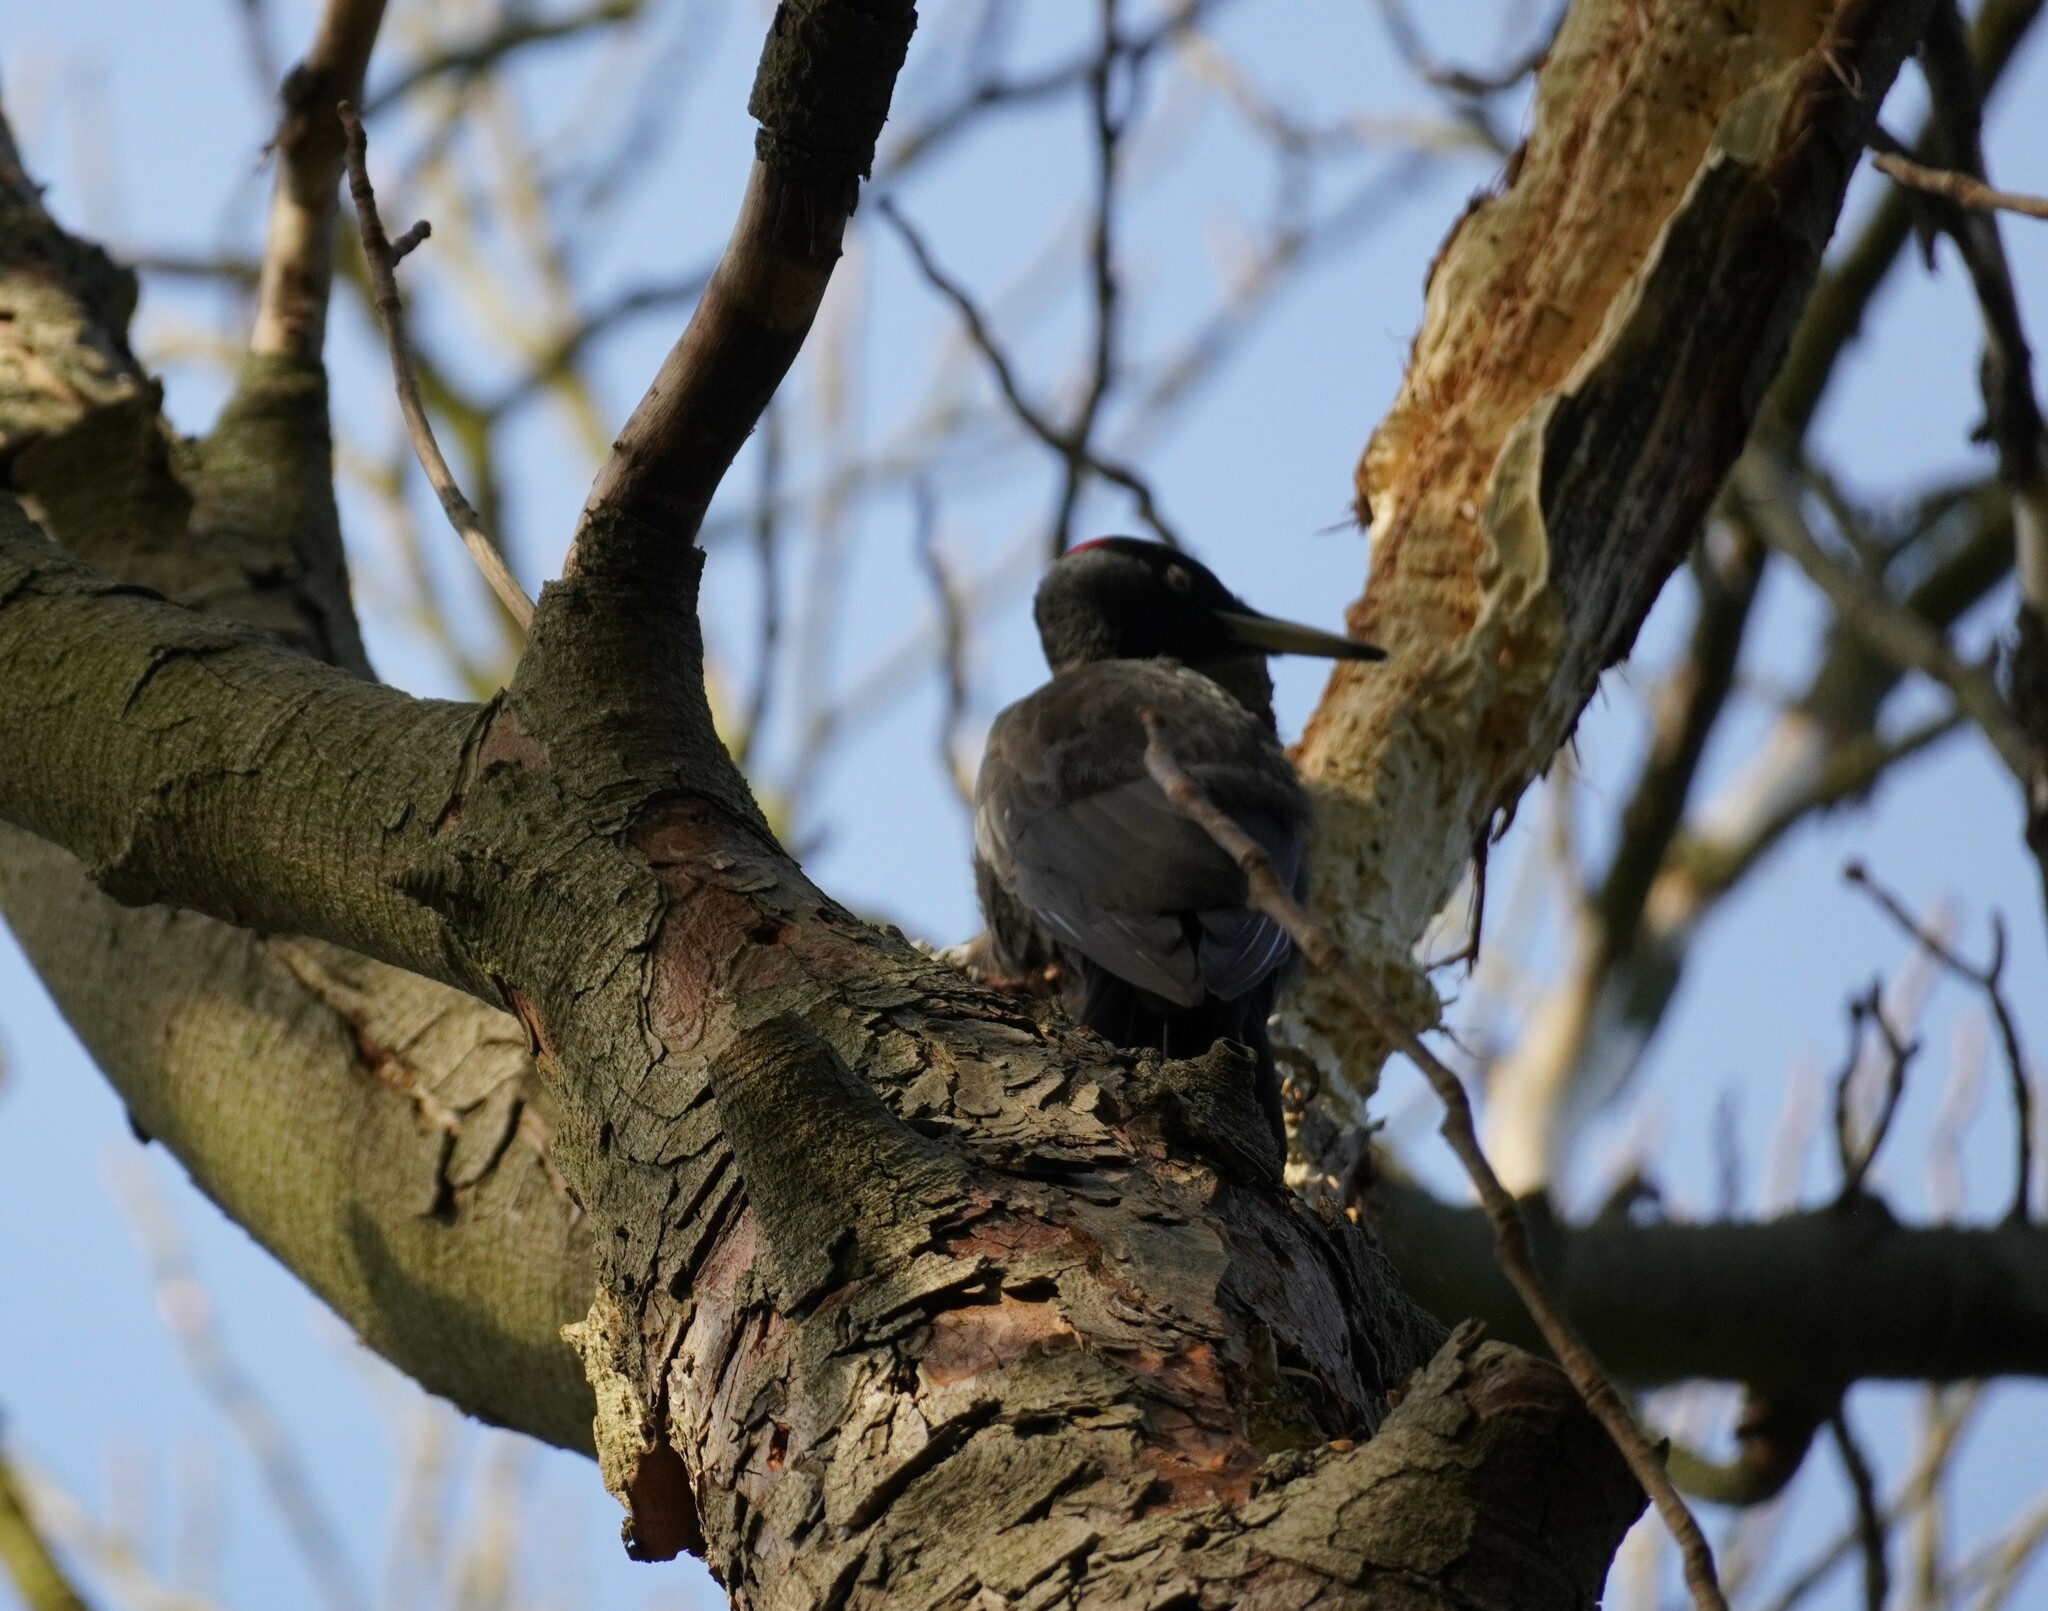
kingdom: Animalia
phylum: Chordata
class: Aves
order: Piciformes
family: Picidae
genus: Dryocopus
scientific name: Dryocopus martius
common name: Black woodpecker
